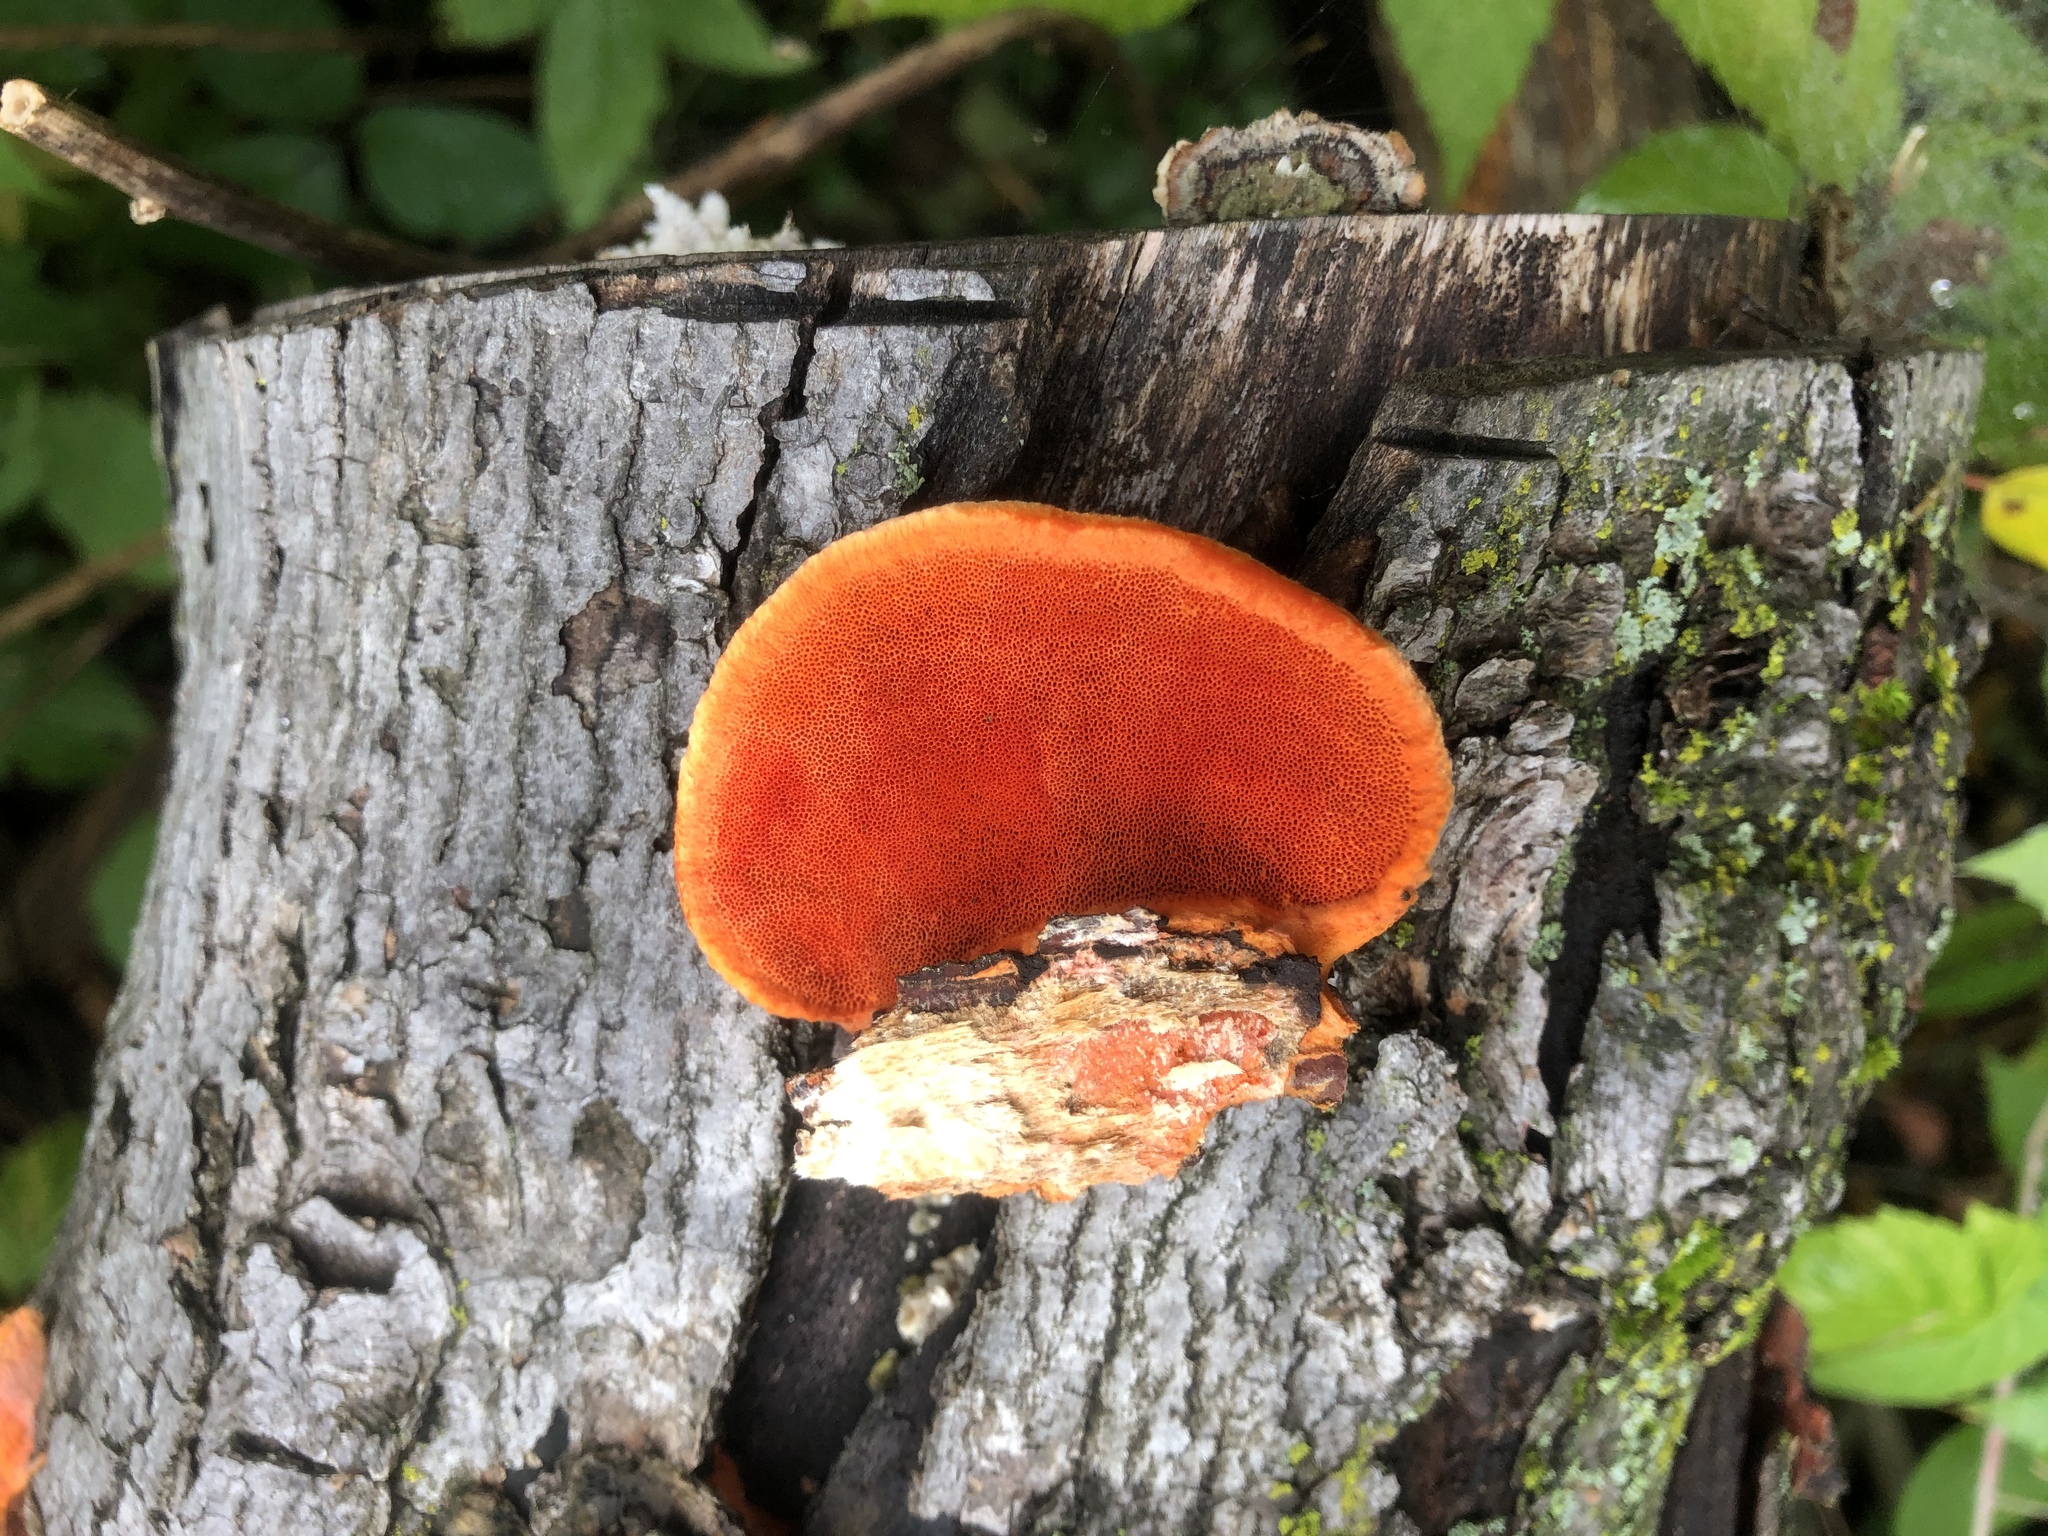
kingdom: Fungi
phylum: Basidiomycota
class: Agaricomycetes
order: Polyporales
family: Polyporaceae
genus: Trametes
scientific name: Trametes cinnabarina
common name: Northern cinnabar polypore
